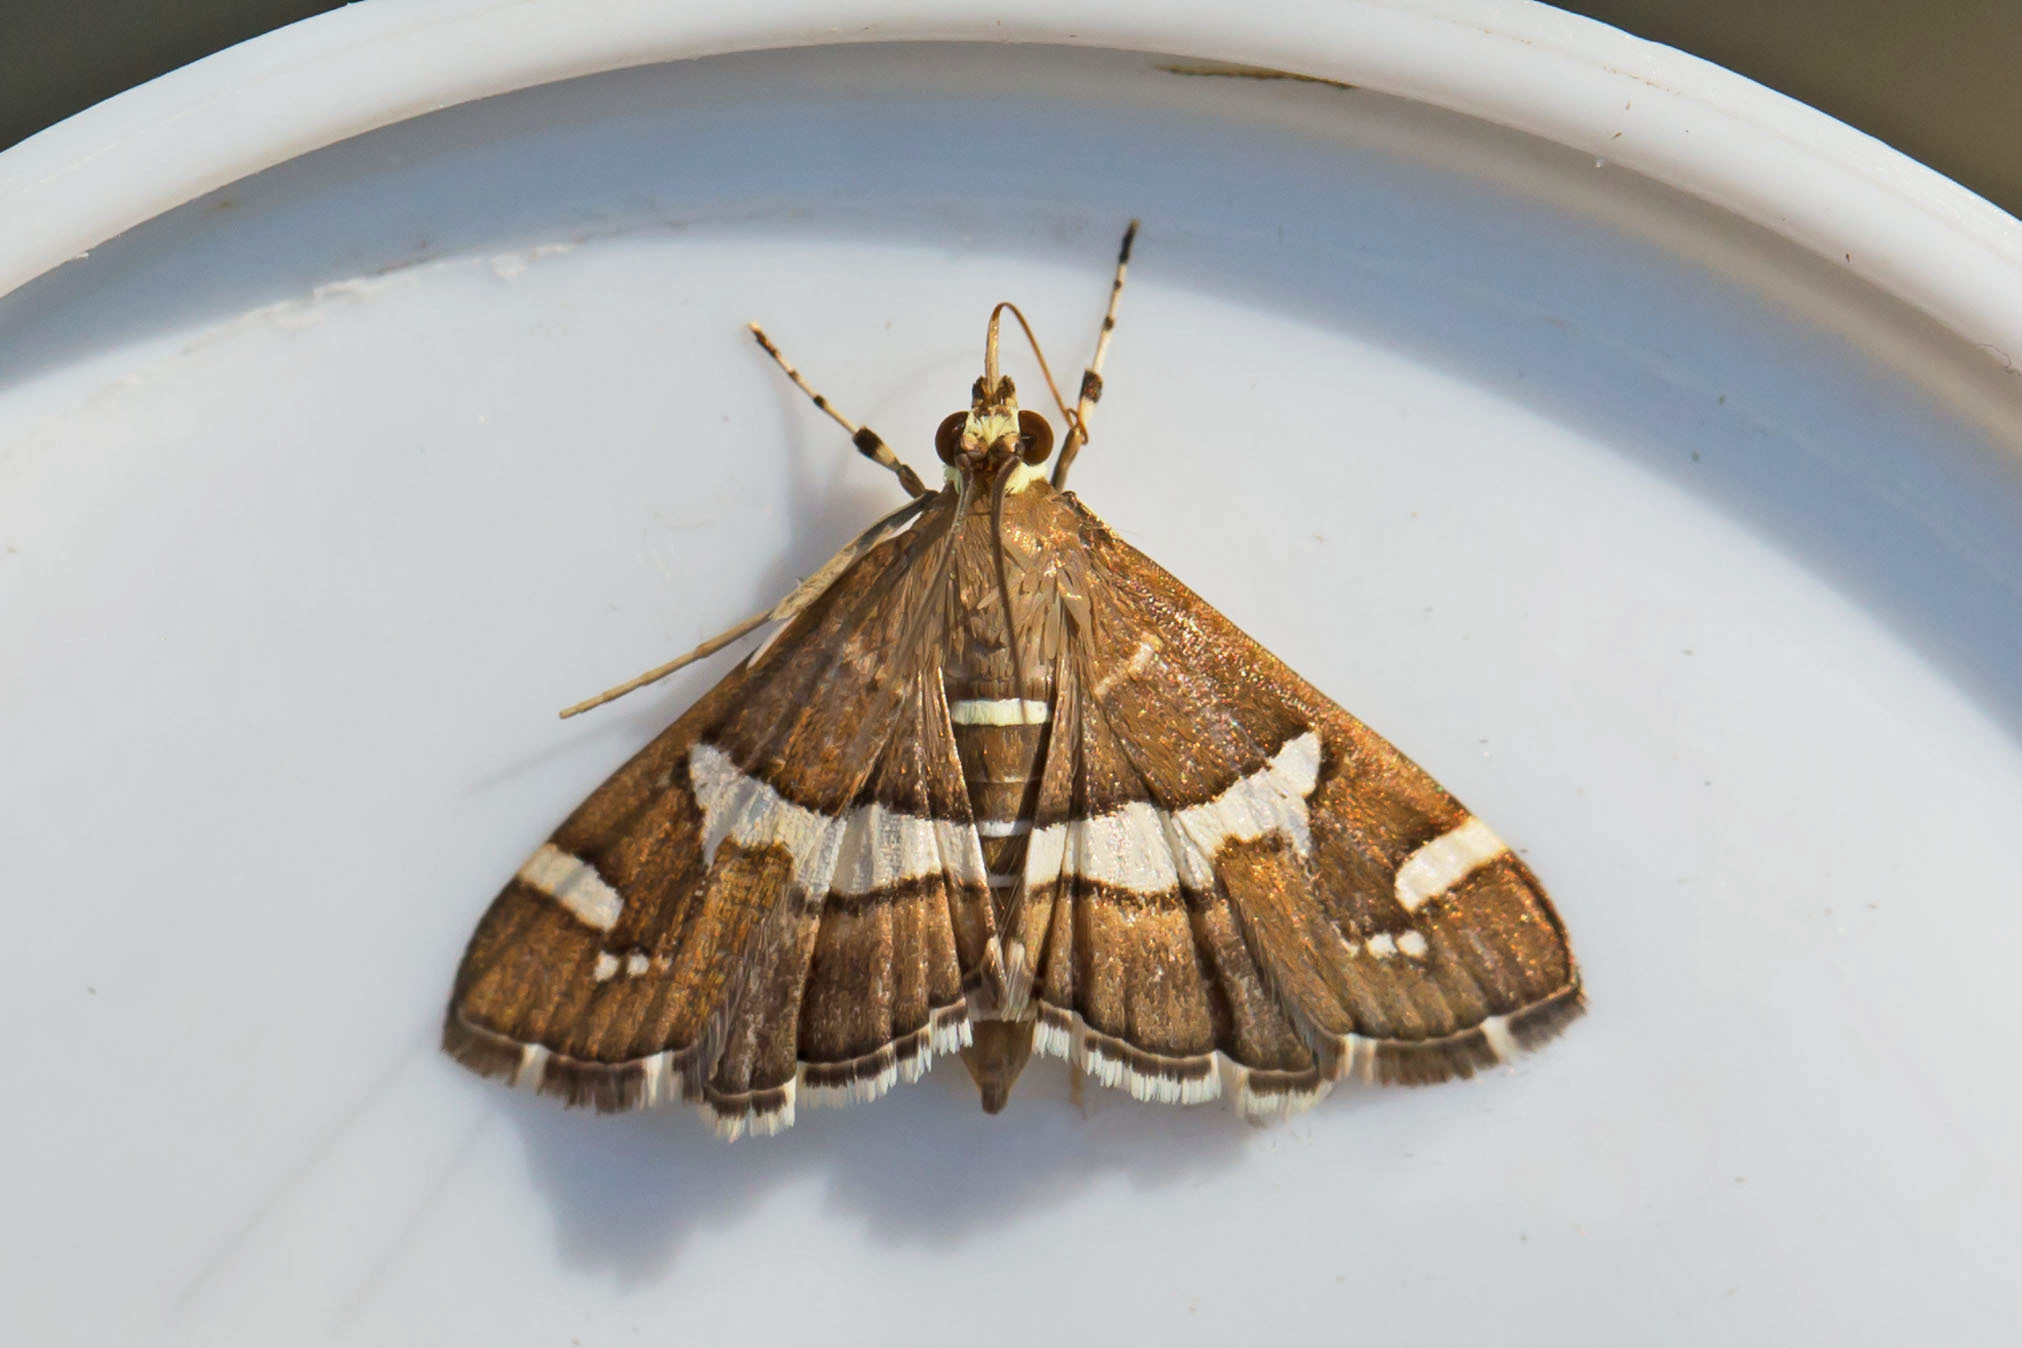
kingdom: Animalia
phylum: Arthropoda
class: Insecta
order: Lepidoptera
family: Crambidae
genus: Spoladea
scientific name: Spoladea recurvalis
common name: Beet webworm moth
